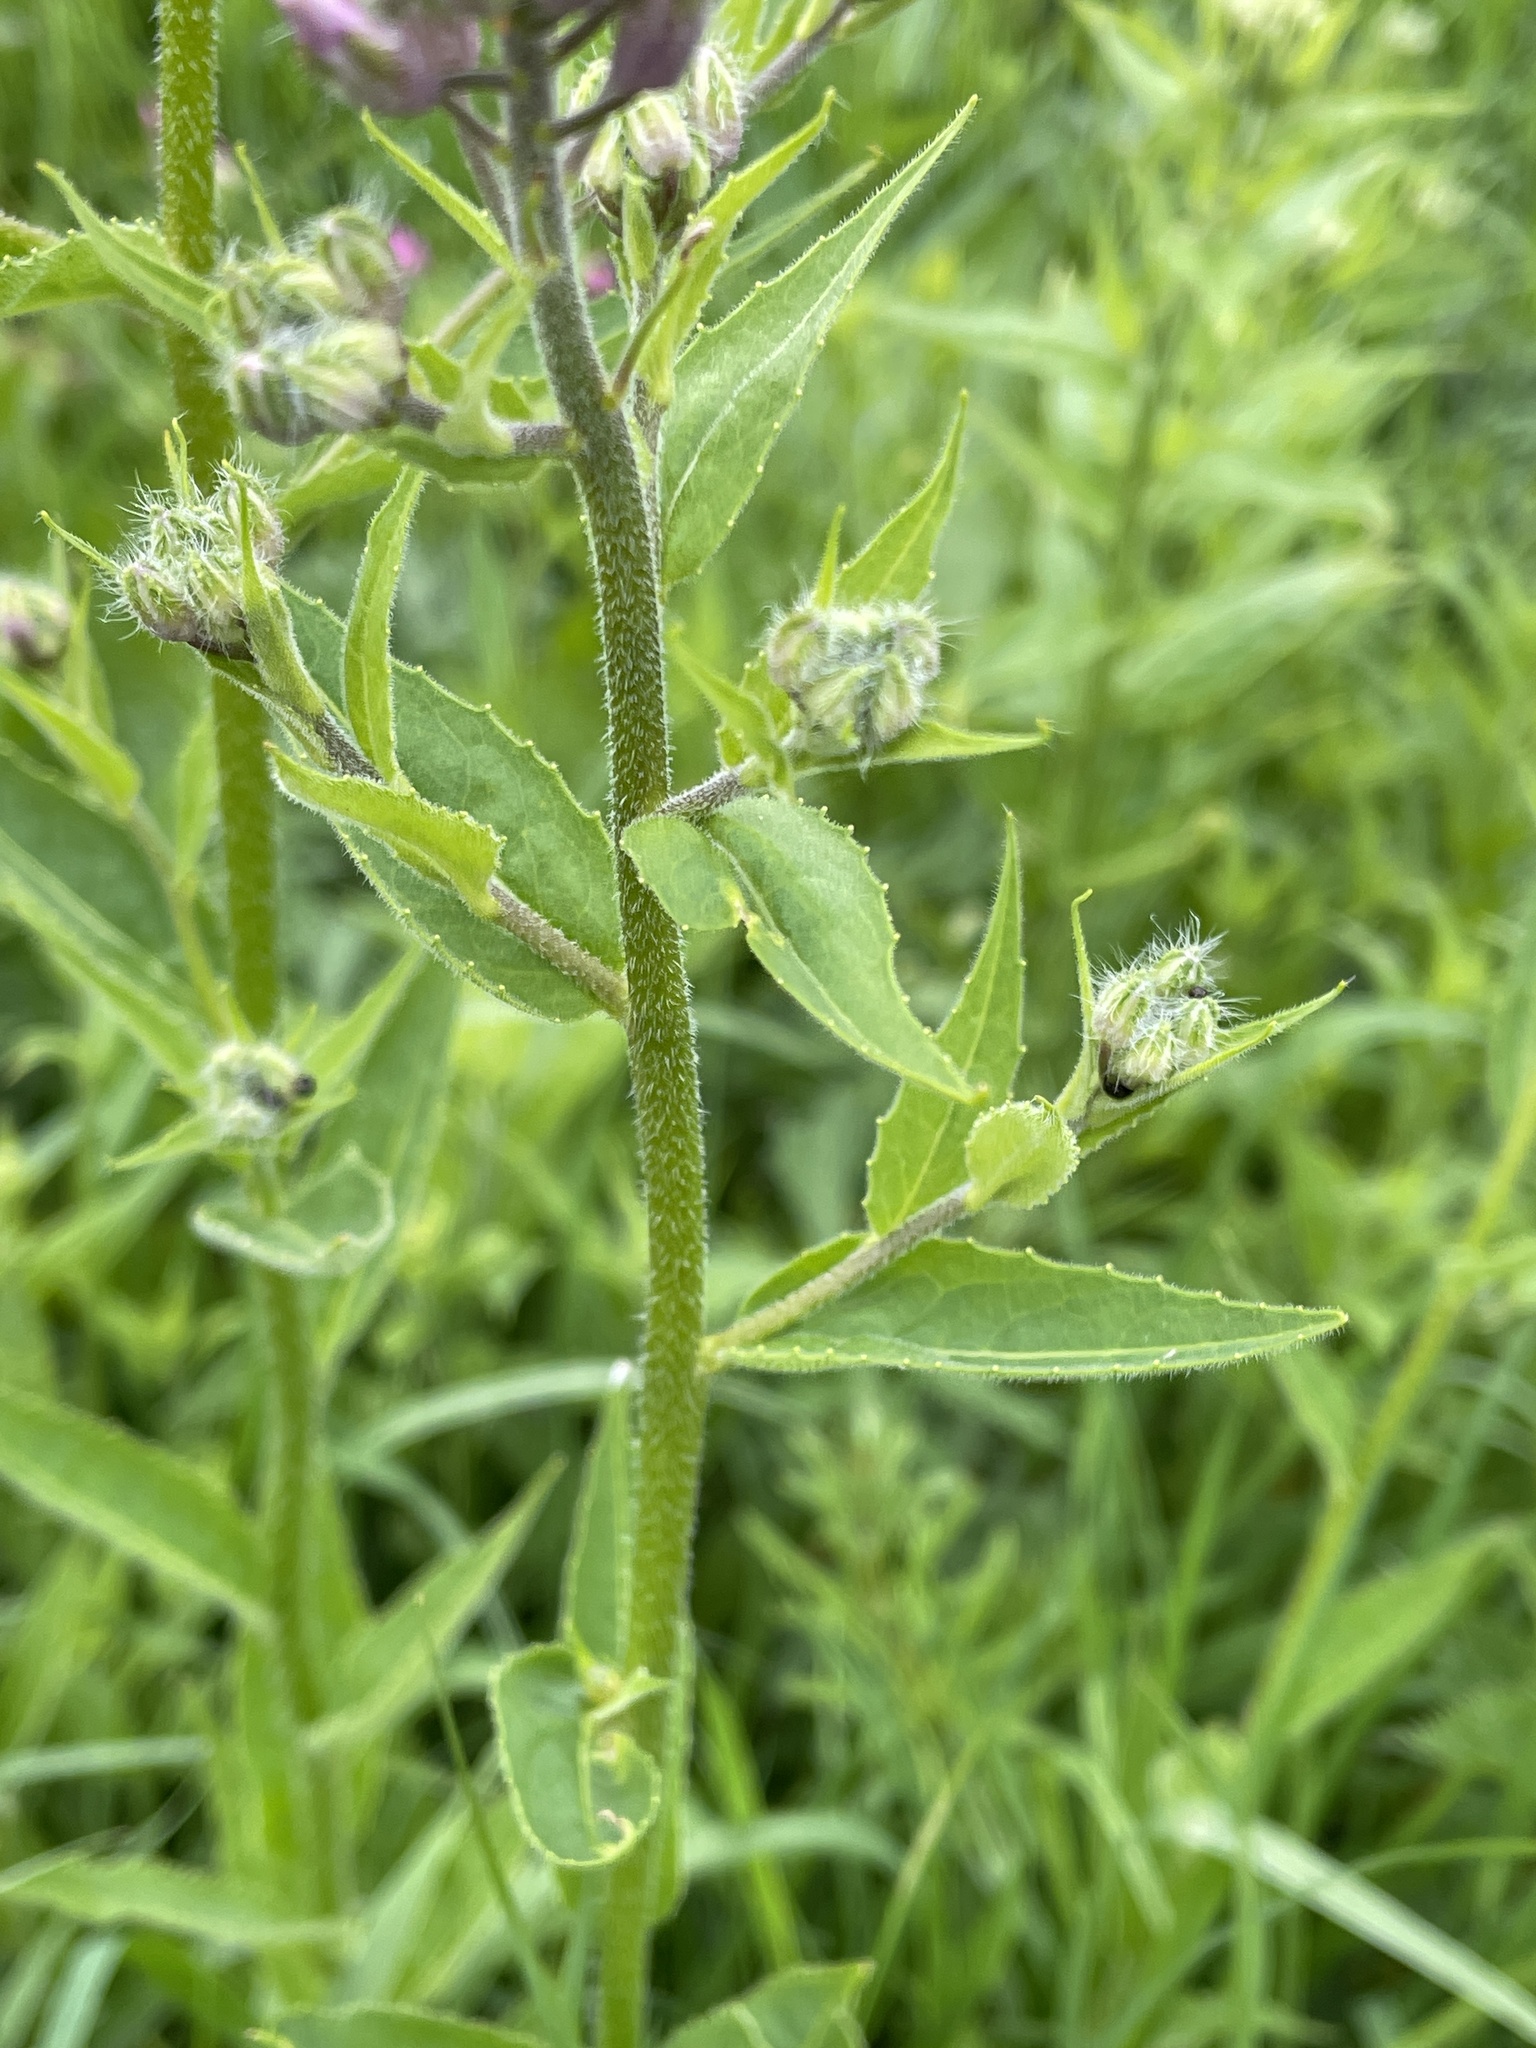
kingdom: Plantae
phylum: Tracheophyta
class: Magnoliopsida
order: Brassicales
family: Brassicaceae
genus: Hesperis
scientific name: Hesperis matronalis
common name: Dame's-violet
